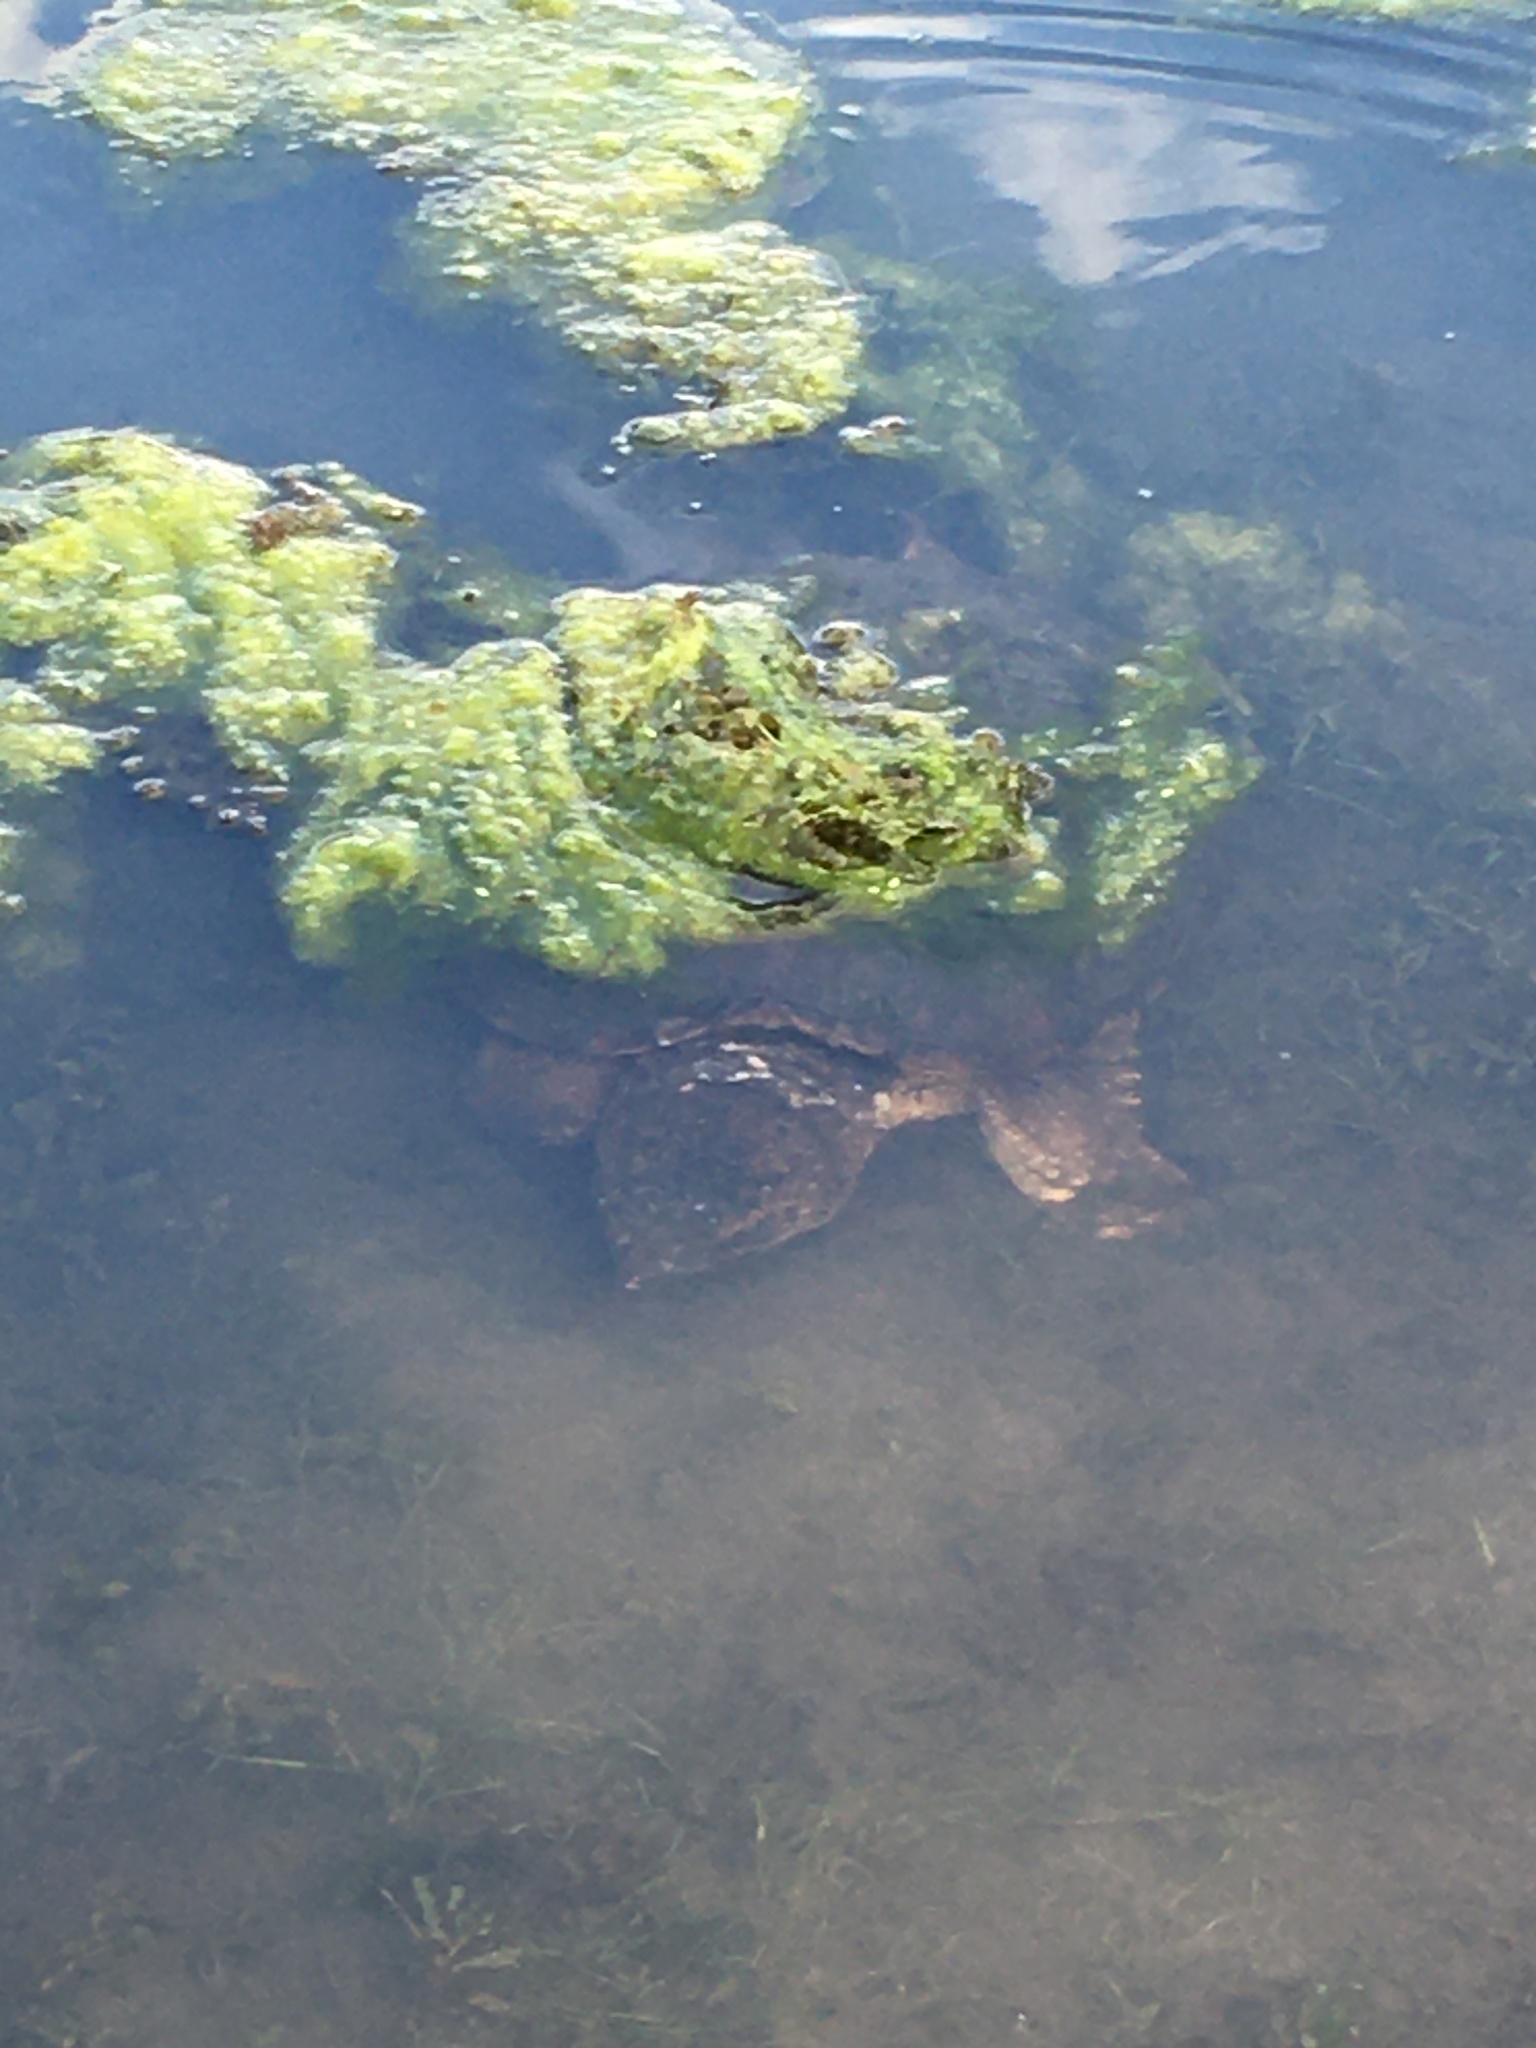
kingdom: Animalia
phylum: Chordata
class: Testudines
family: Chelydridae
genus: Chelydra
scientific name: Chelydra serpentina
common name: Common snapping turtle
